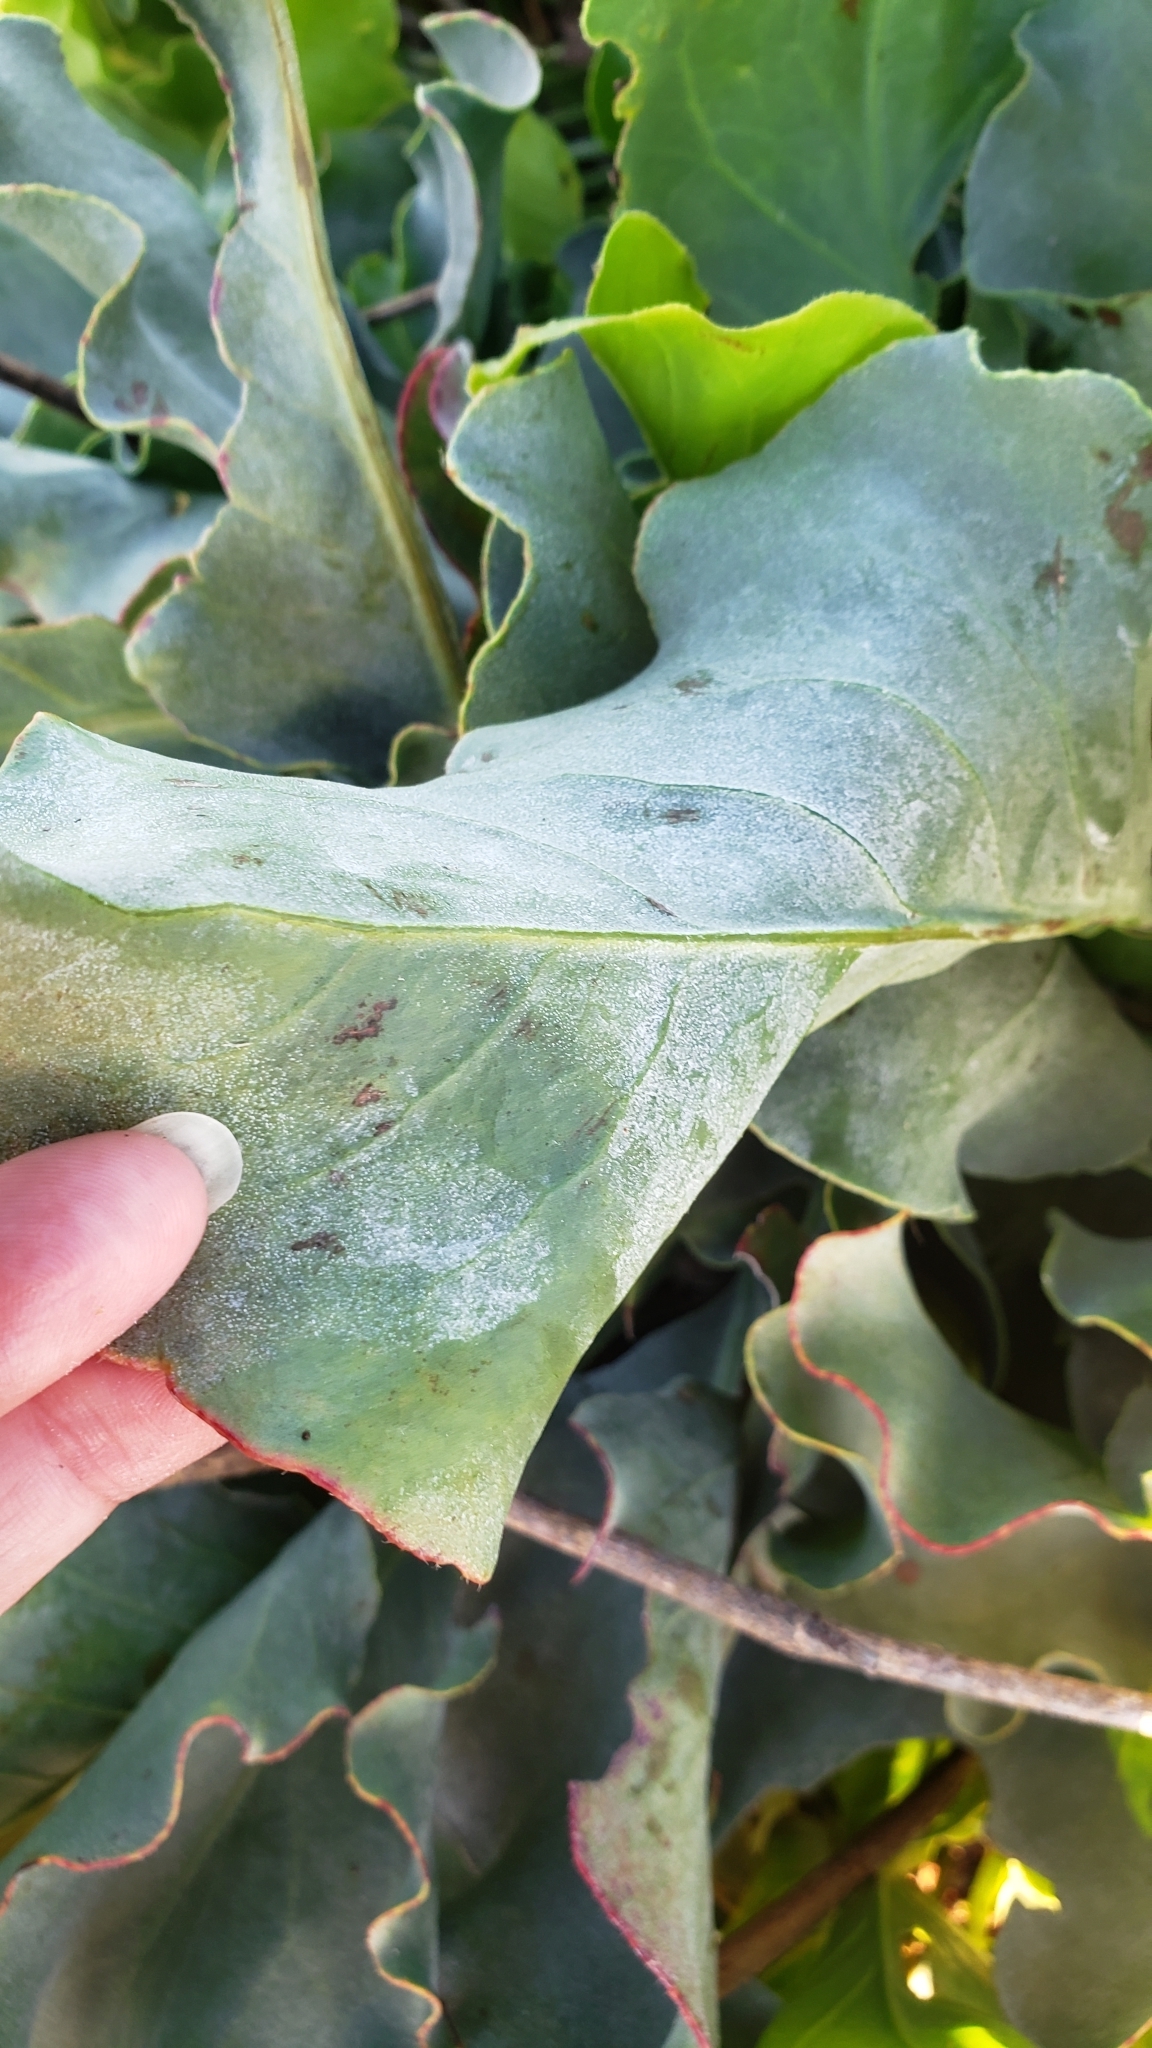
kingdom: Plantae
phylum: Tracheophyta
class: Magnoliopsida
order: Caryophyllales
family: Plumbaginaceae
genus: Limonium
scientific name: Limonium perezii
